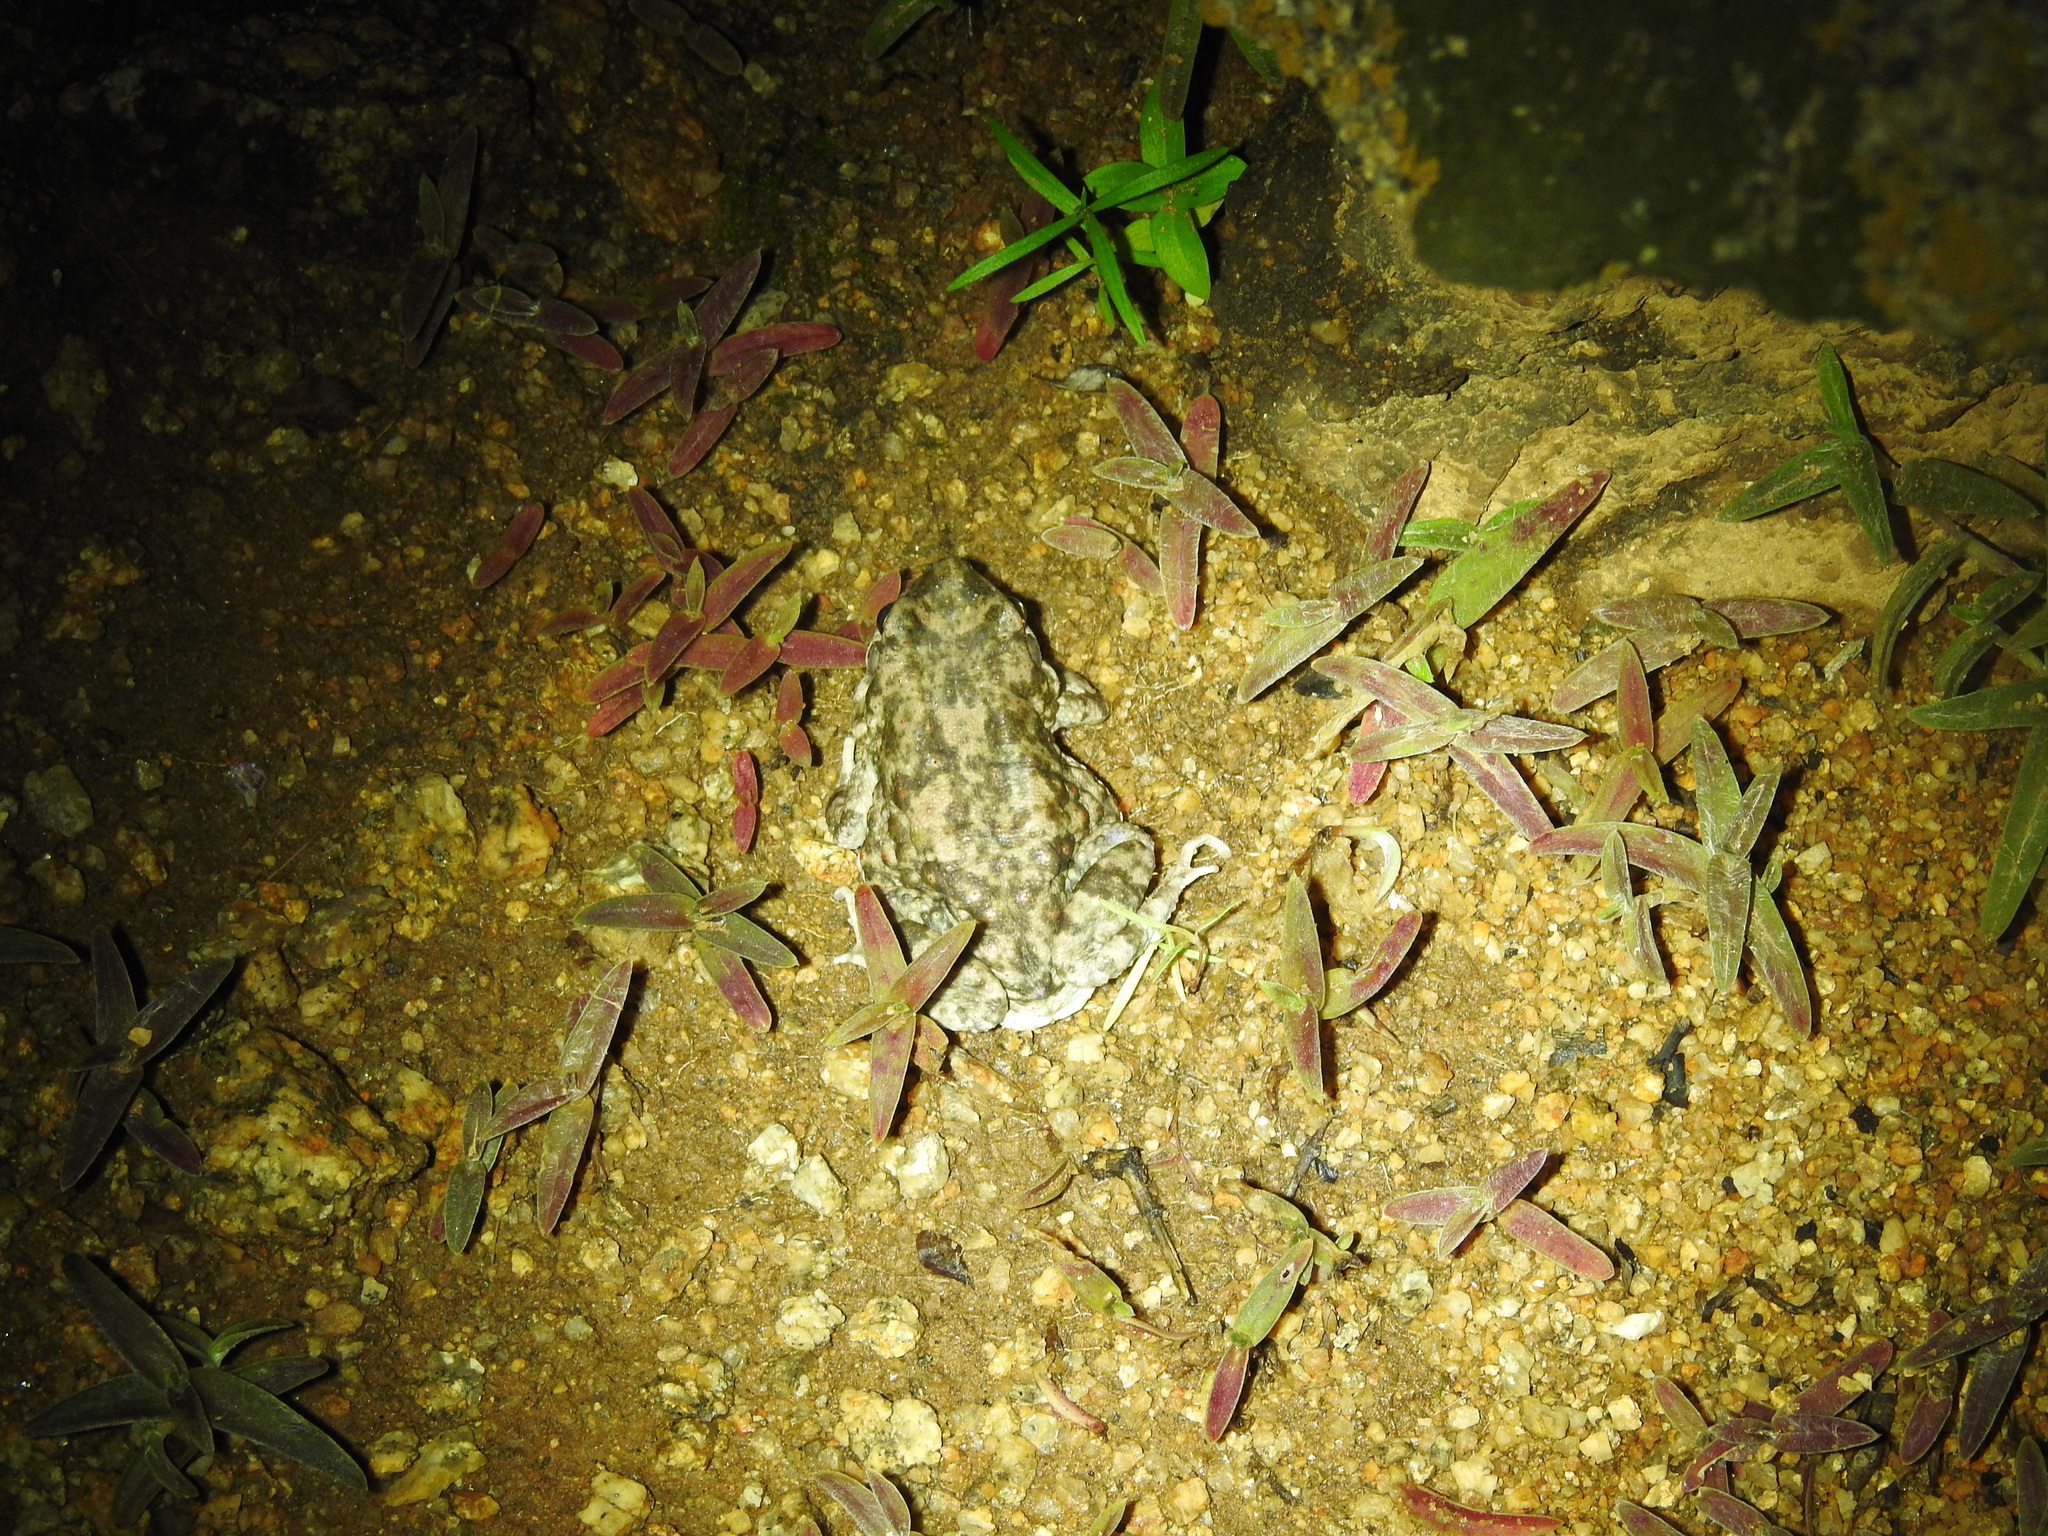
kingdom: Animalia
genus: Firouzophrynus
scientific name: Firouzophrynus
